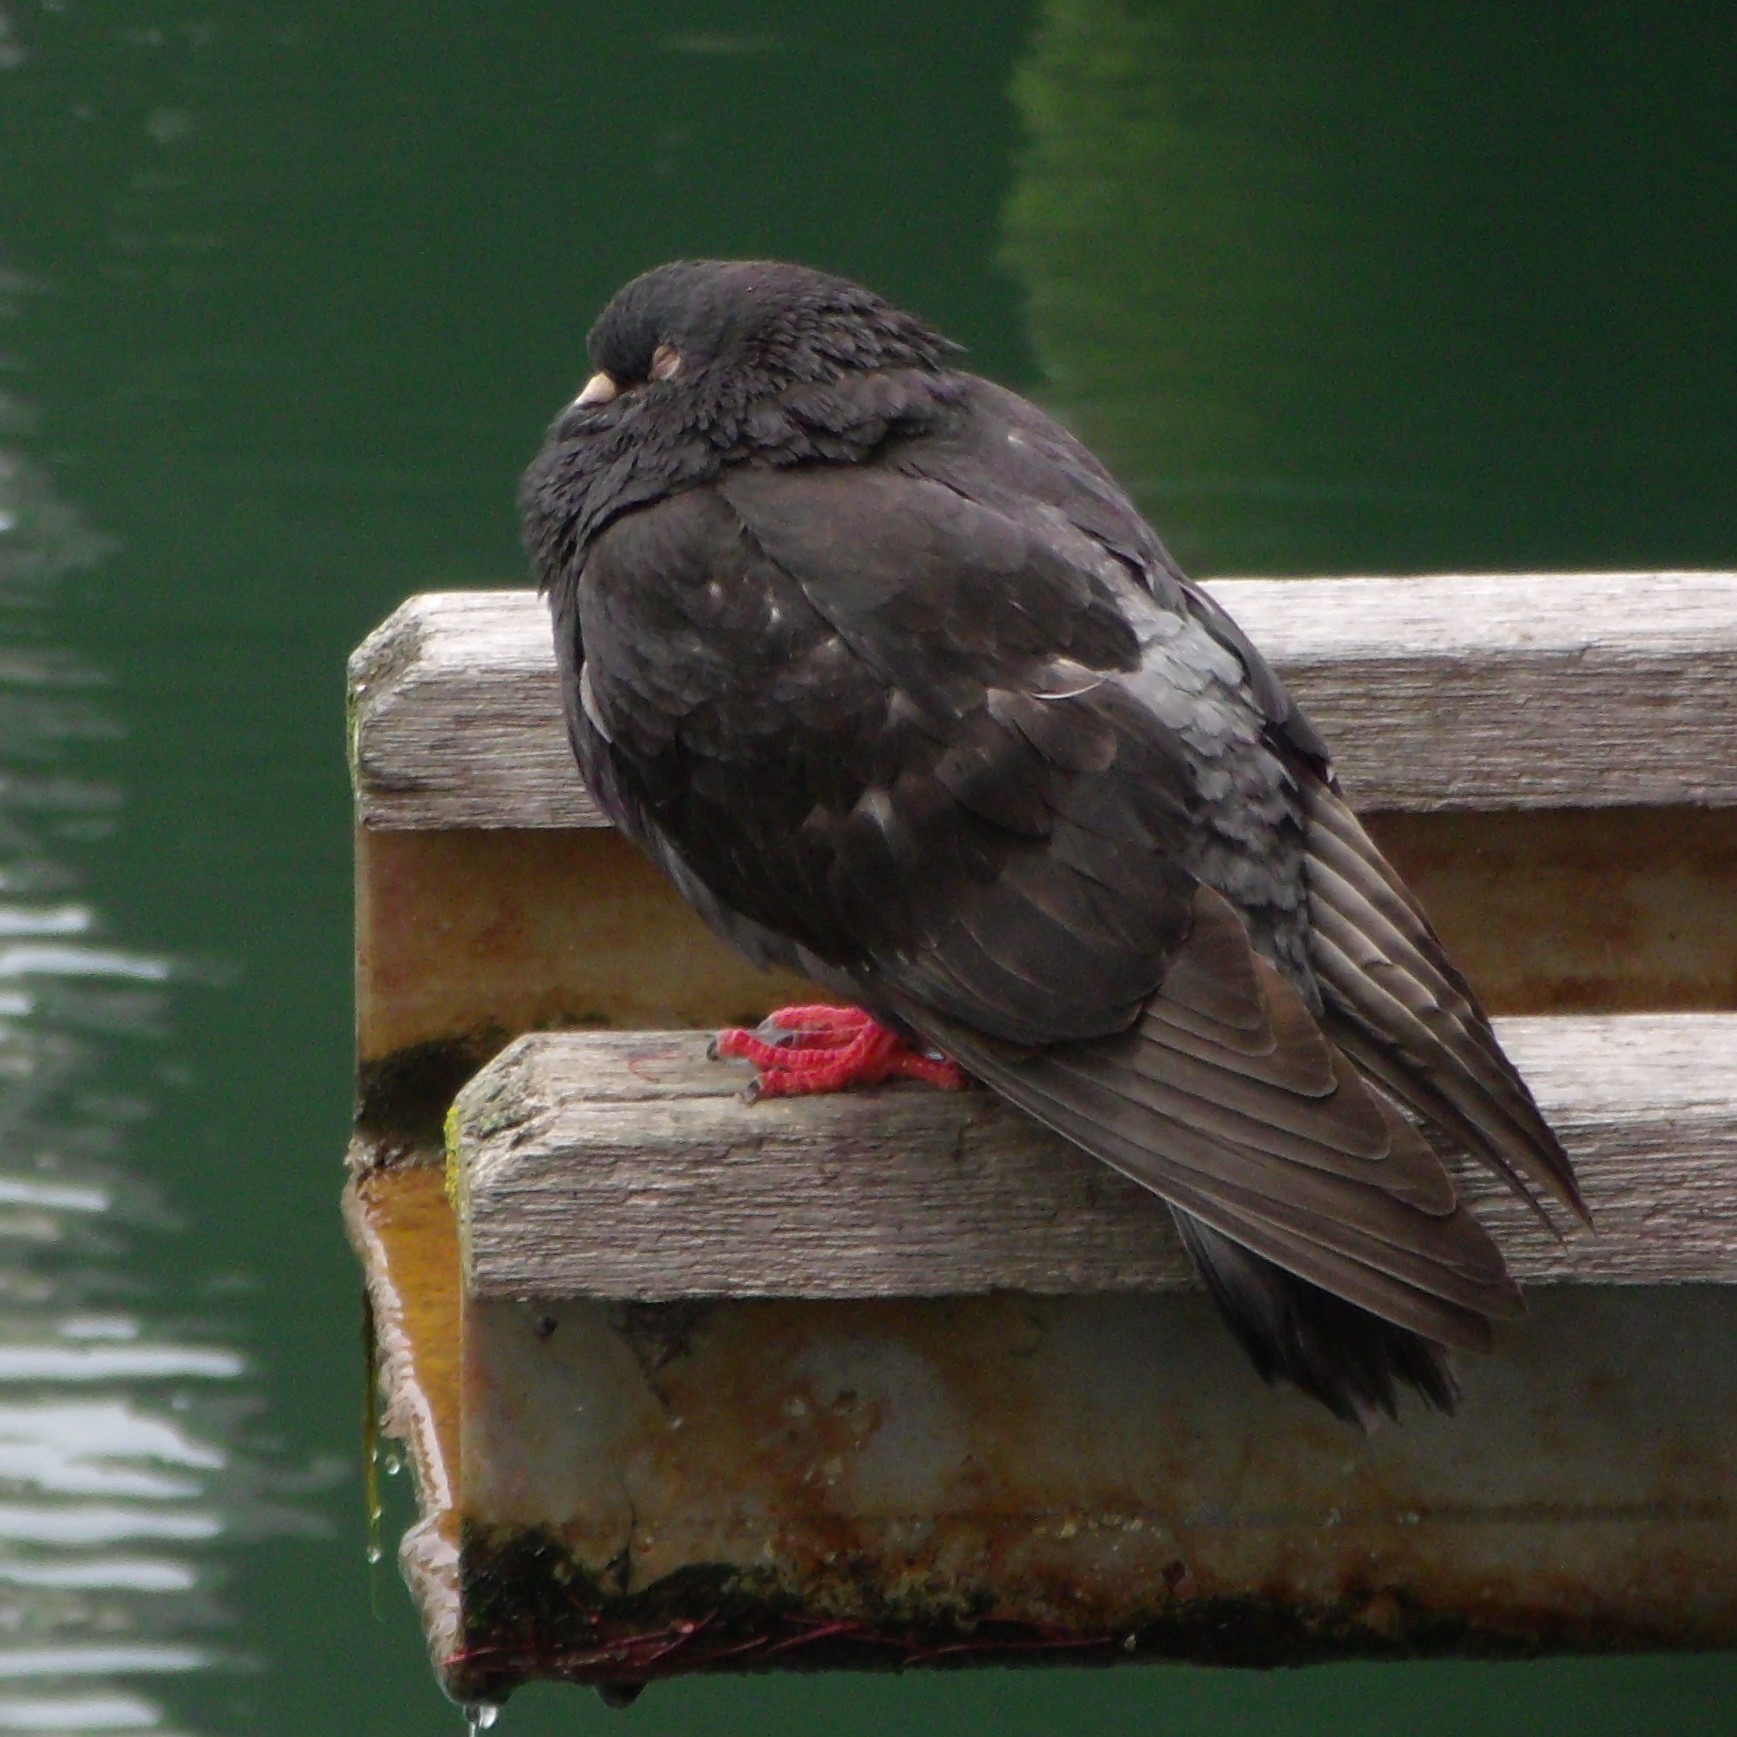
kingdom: Animalia
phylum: Chordata
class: Aves
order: Columbiformes
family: Columbidae
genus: Columba
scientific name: Columba livia
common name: Rock pigeon
